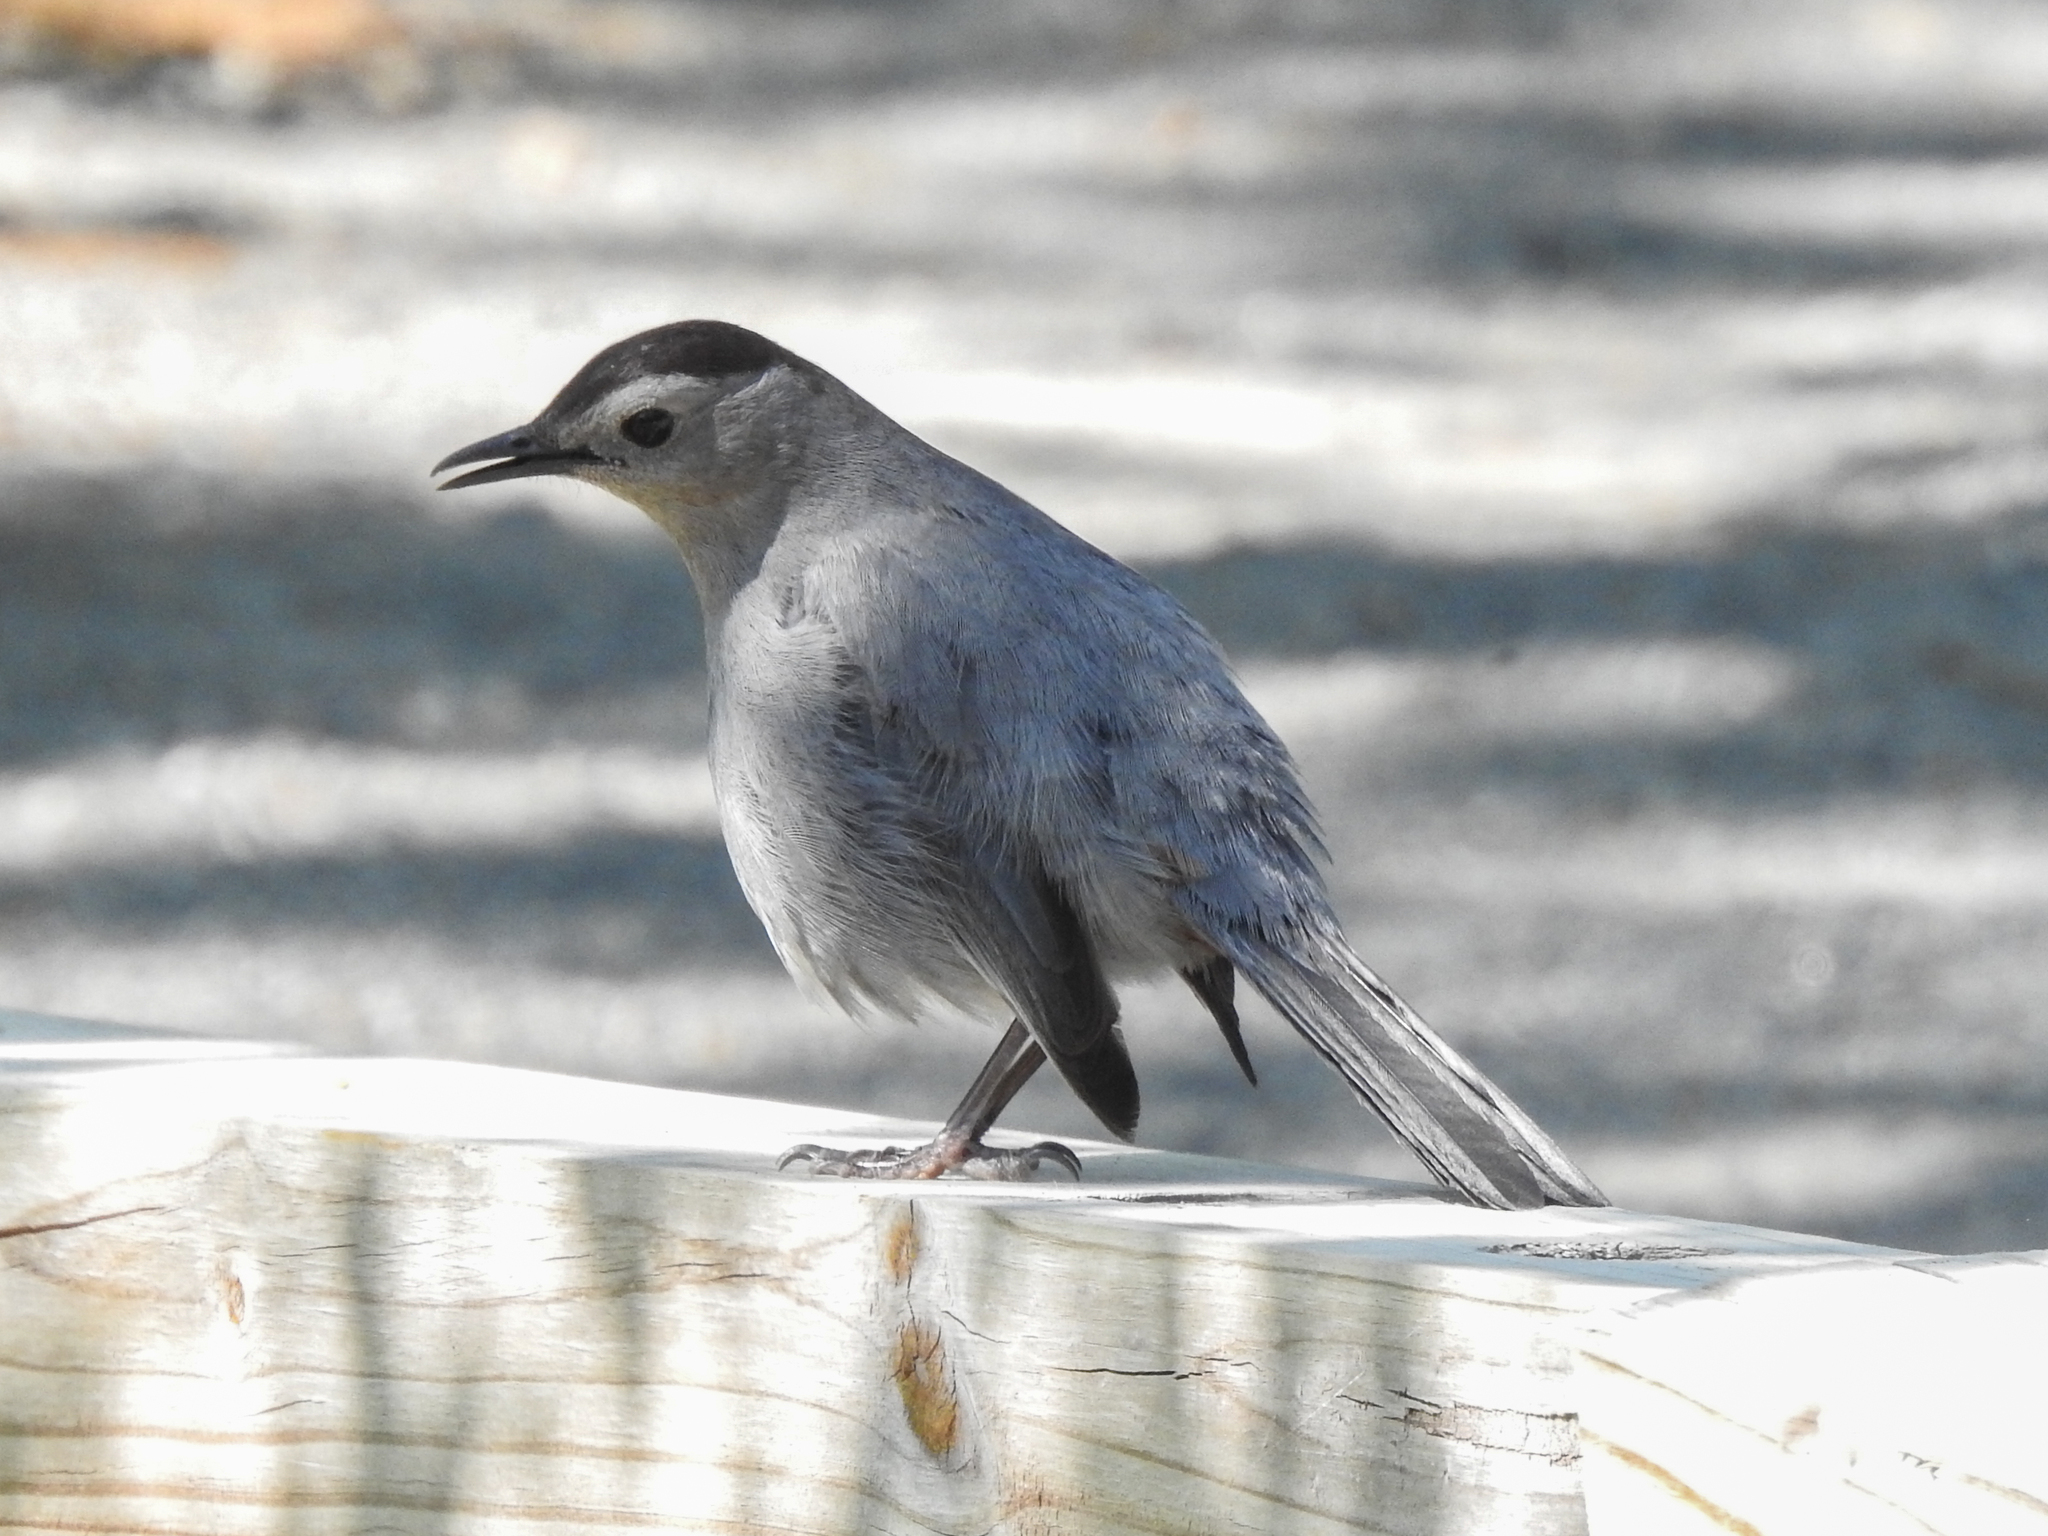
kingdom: Animalia
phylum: Chordata
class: Aves
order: Passeriformes
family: Mimidae
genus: Dumetella
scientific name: Dumetella carolinensis
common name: Gray catbird
